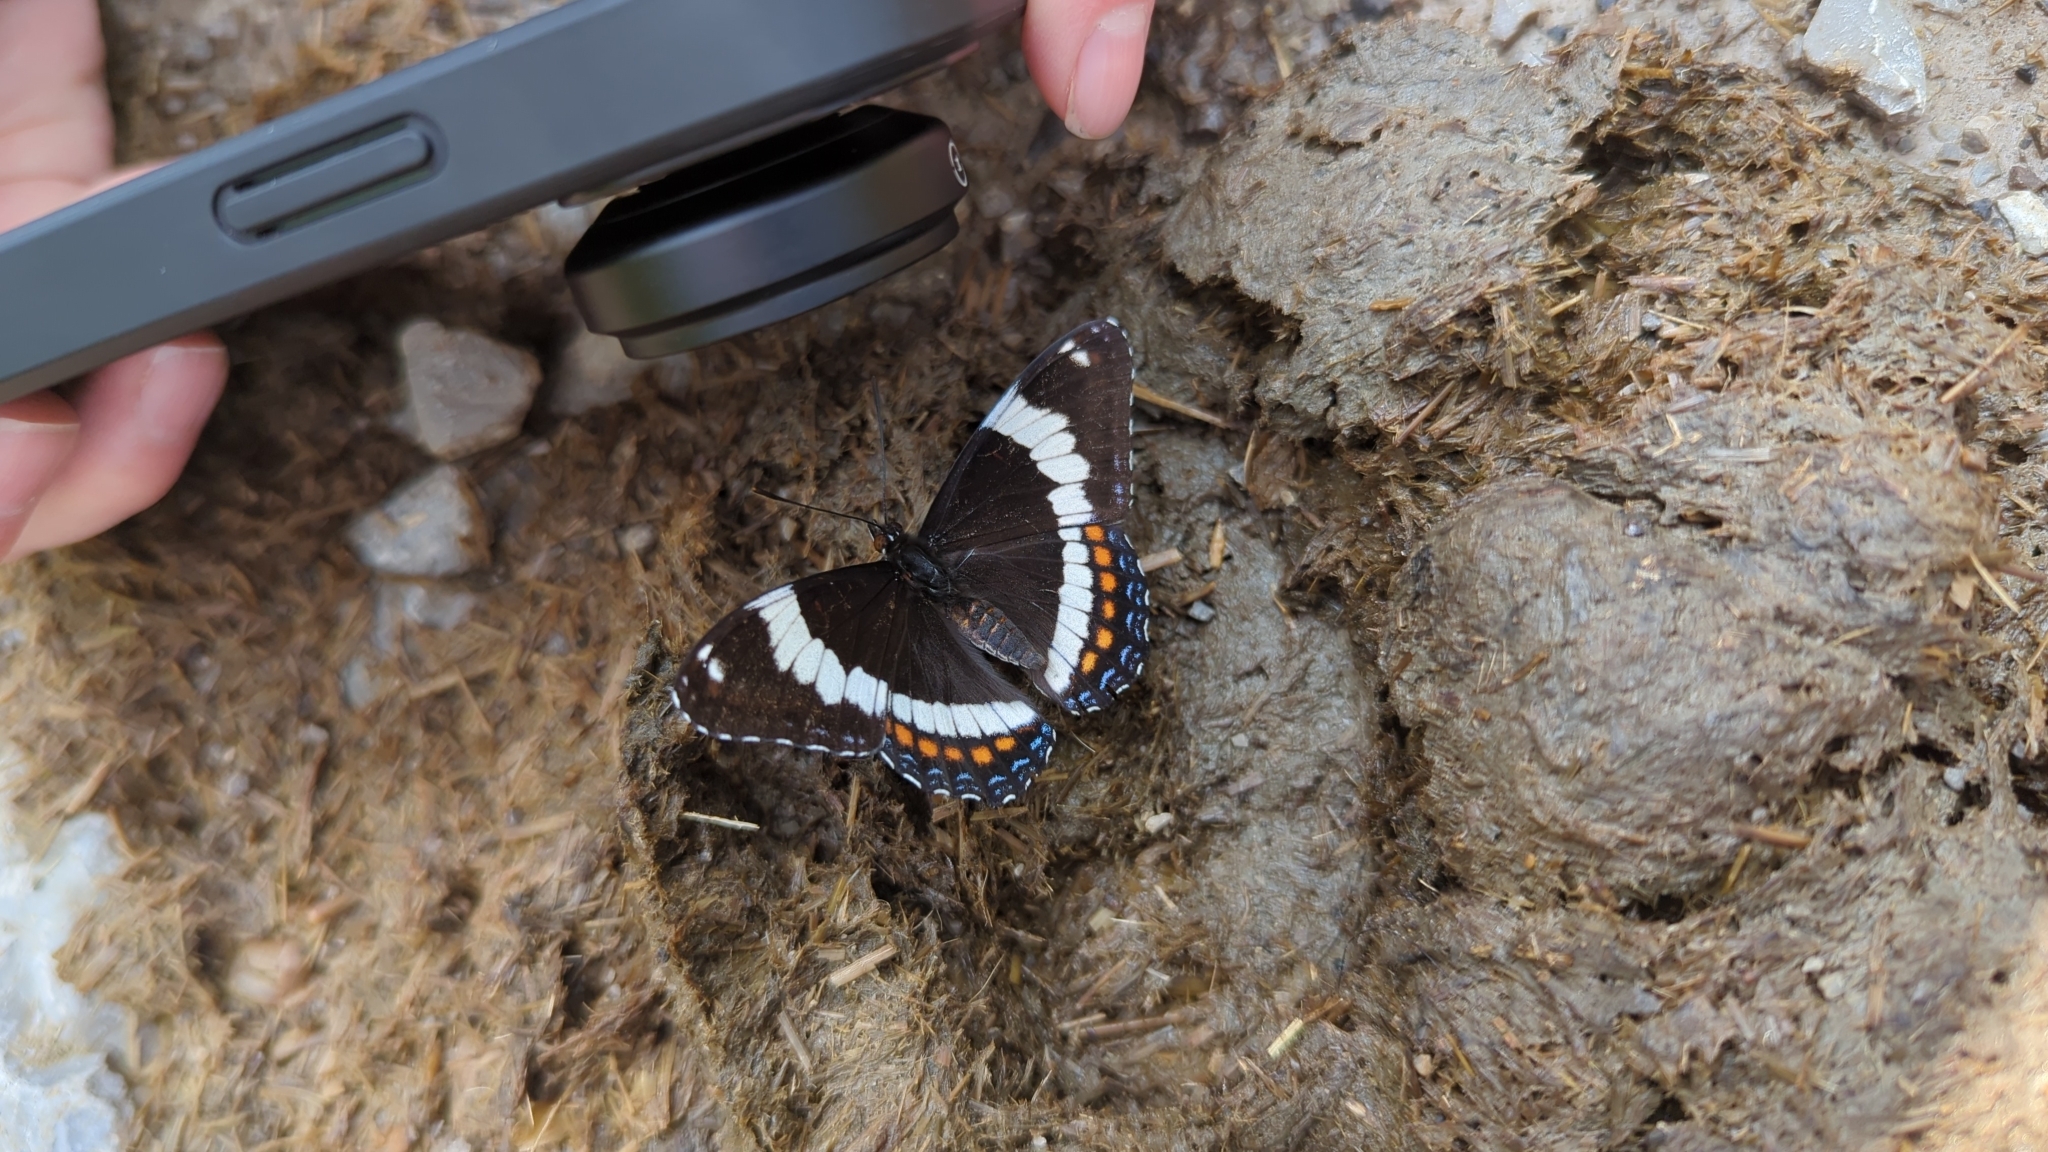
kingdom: Animalia
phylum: Arthropoda
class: Insecta
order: Lepidoptera
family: Nymphalidae
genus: Limenitis
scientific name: Limenitis arthemis
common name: Red-spotted admiral
